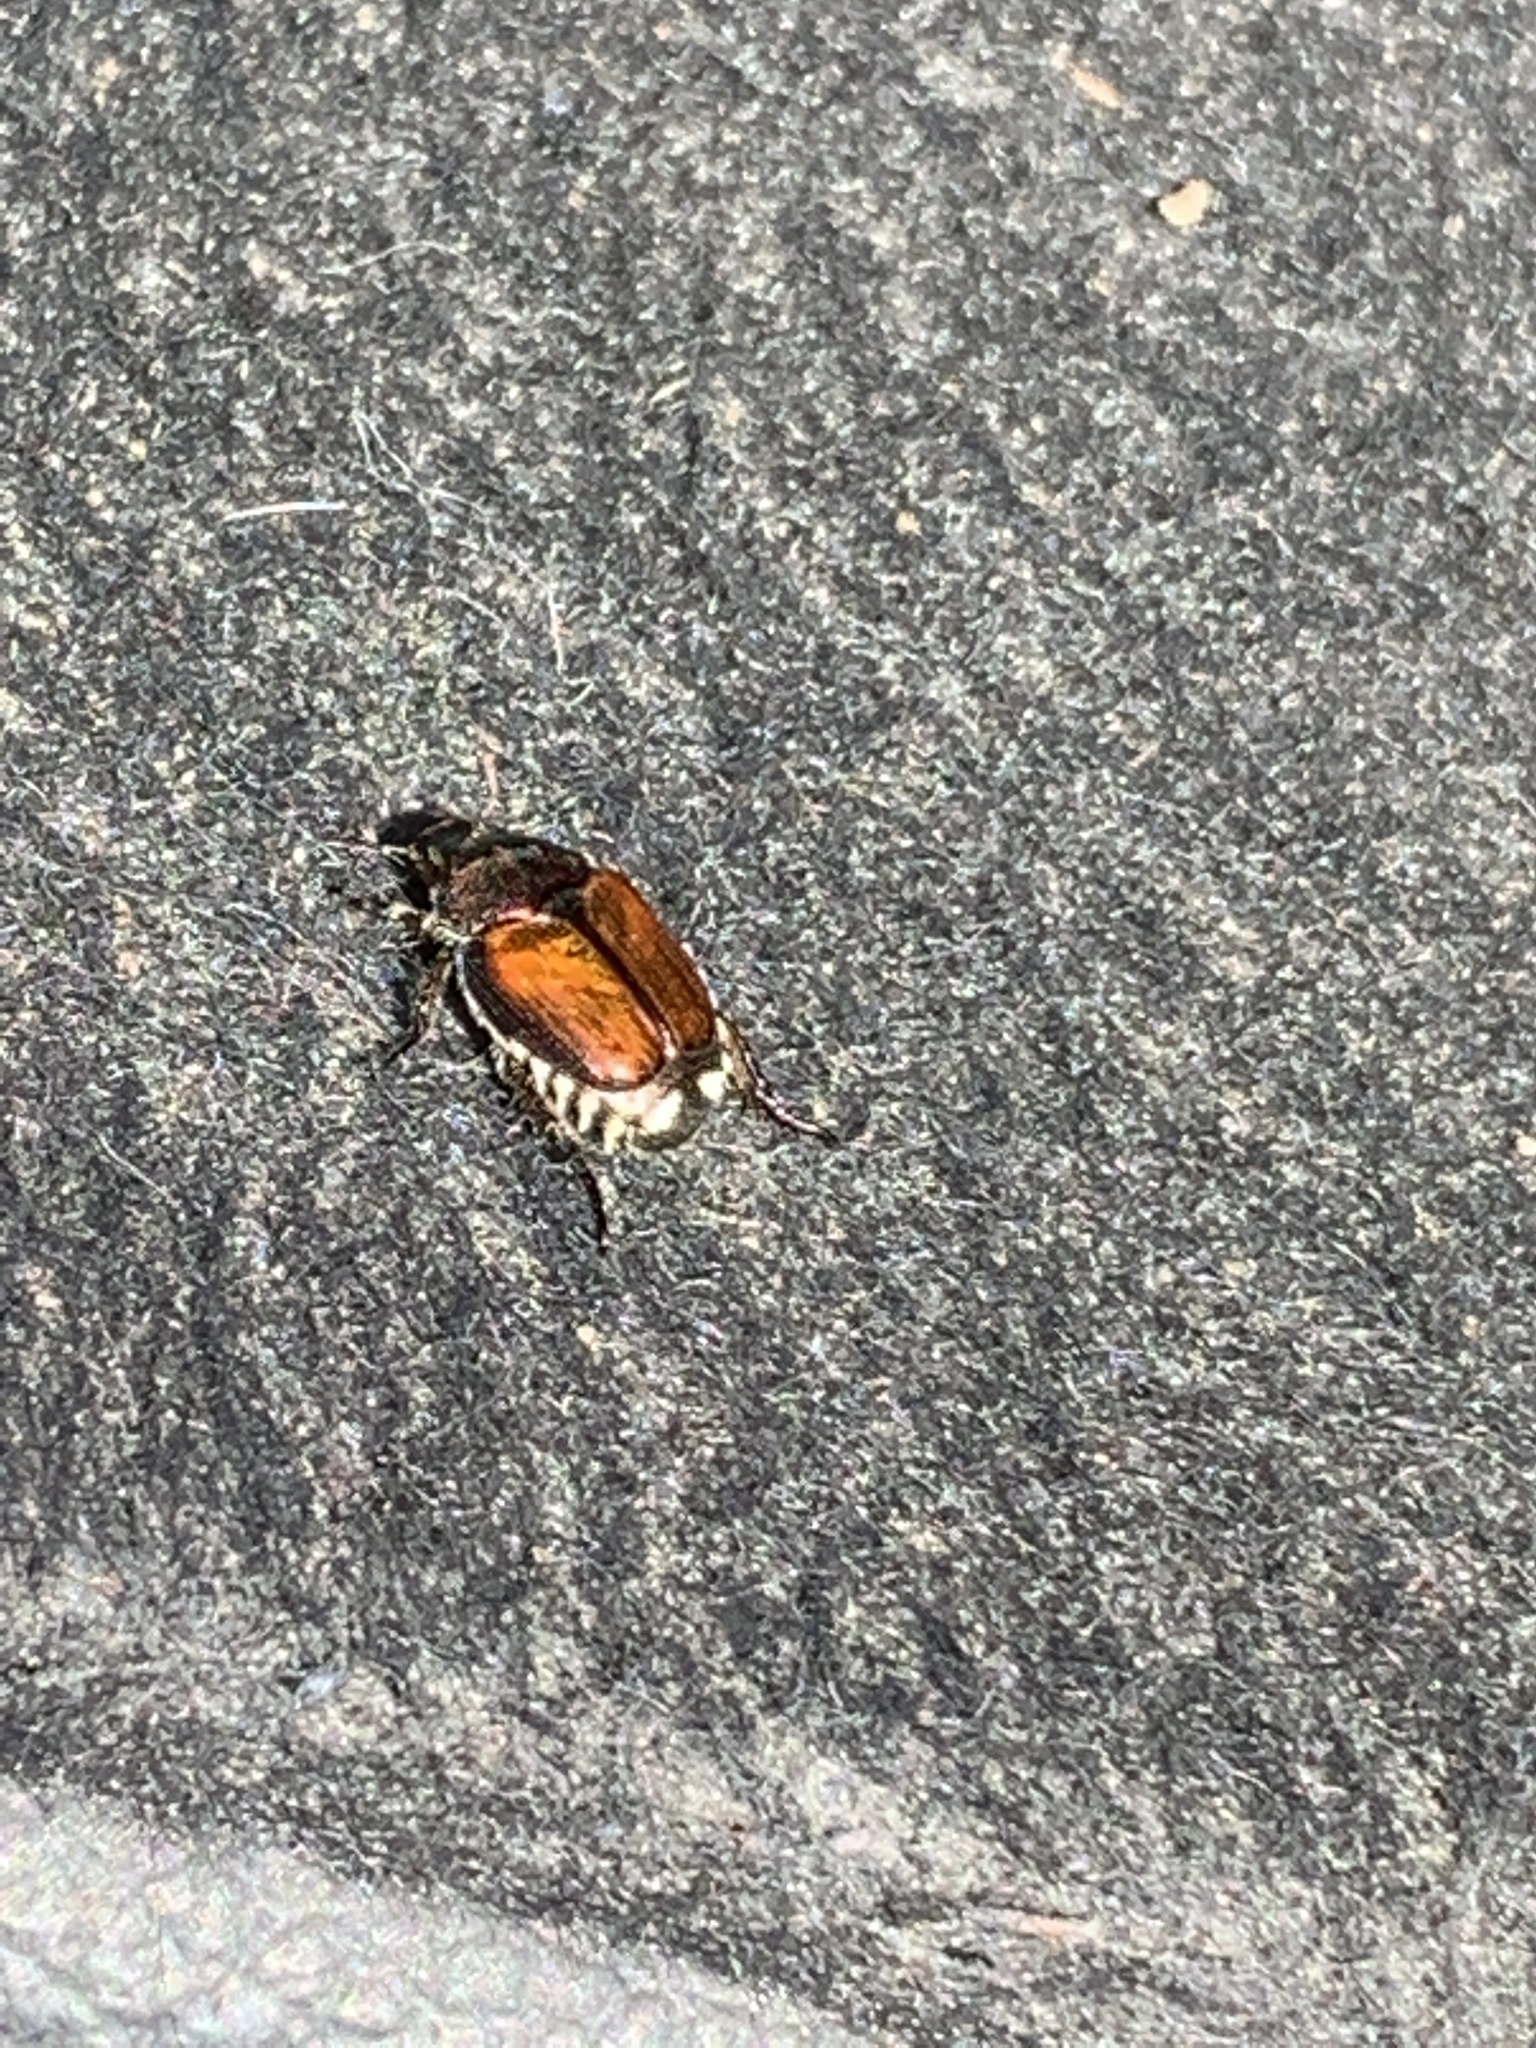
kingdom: Animalia
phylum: Arthropoda
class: Insecta
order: Coleoptera
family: Scarabaeidae
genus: Popillia
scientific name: Popillia japonica
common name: Japanese beetle
